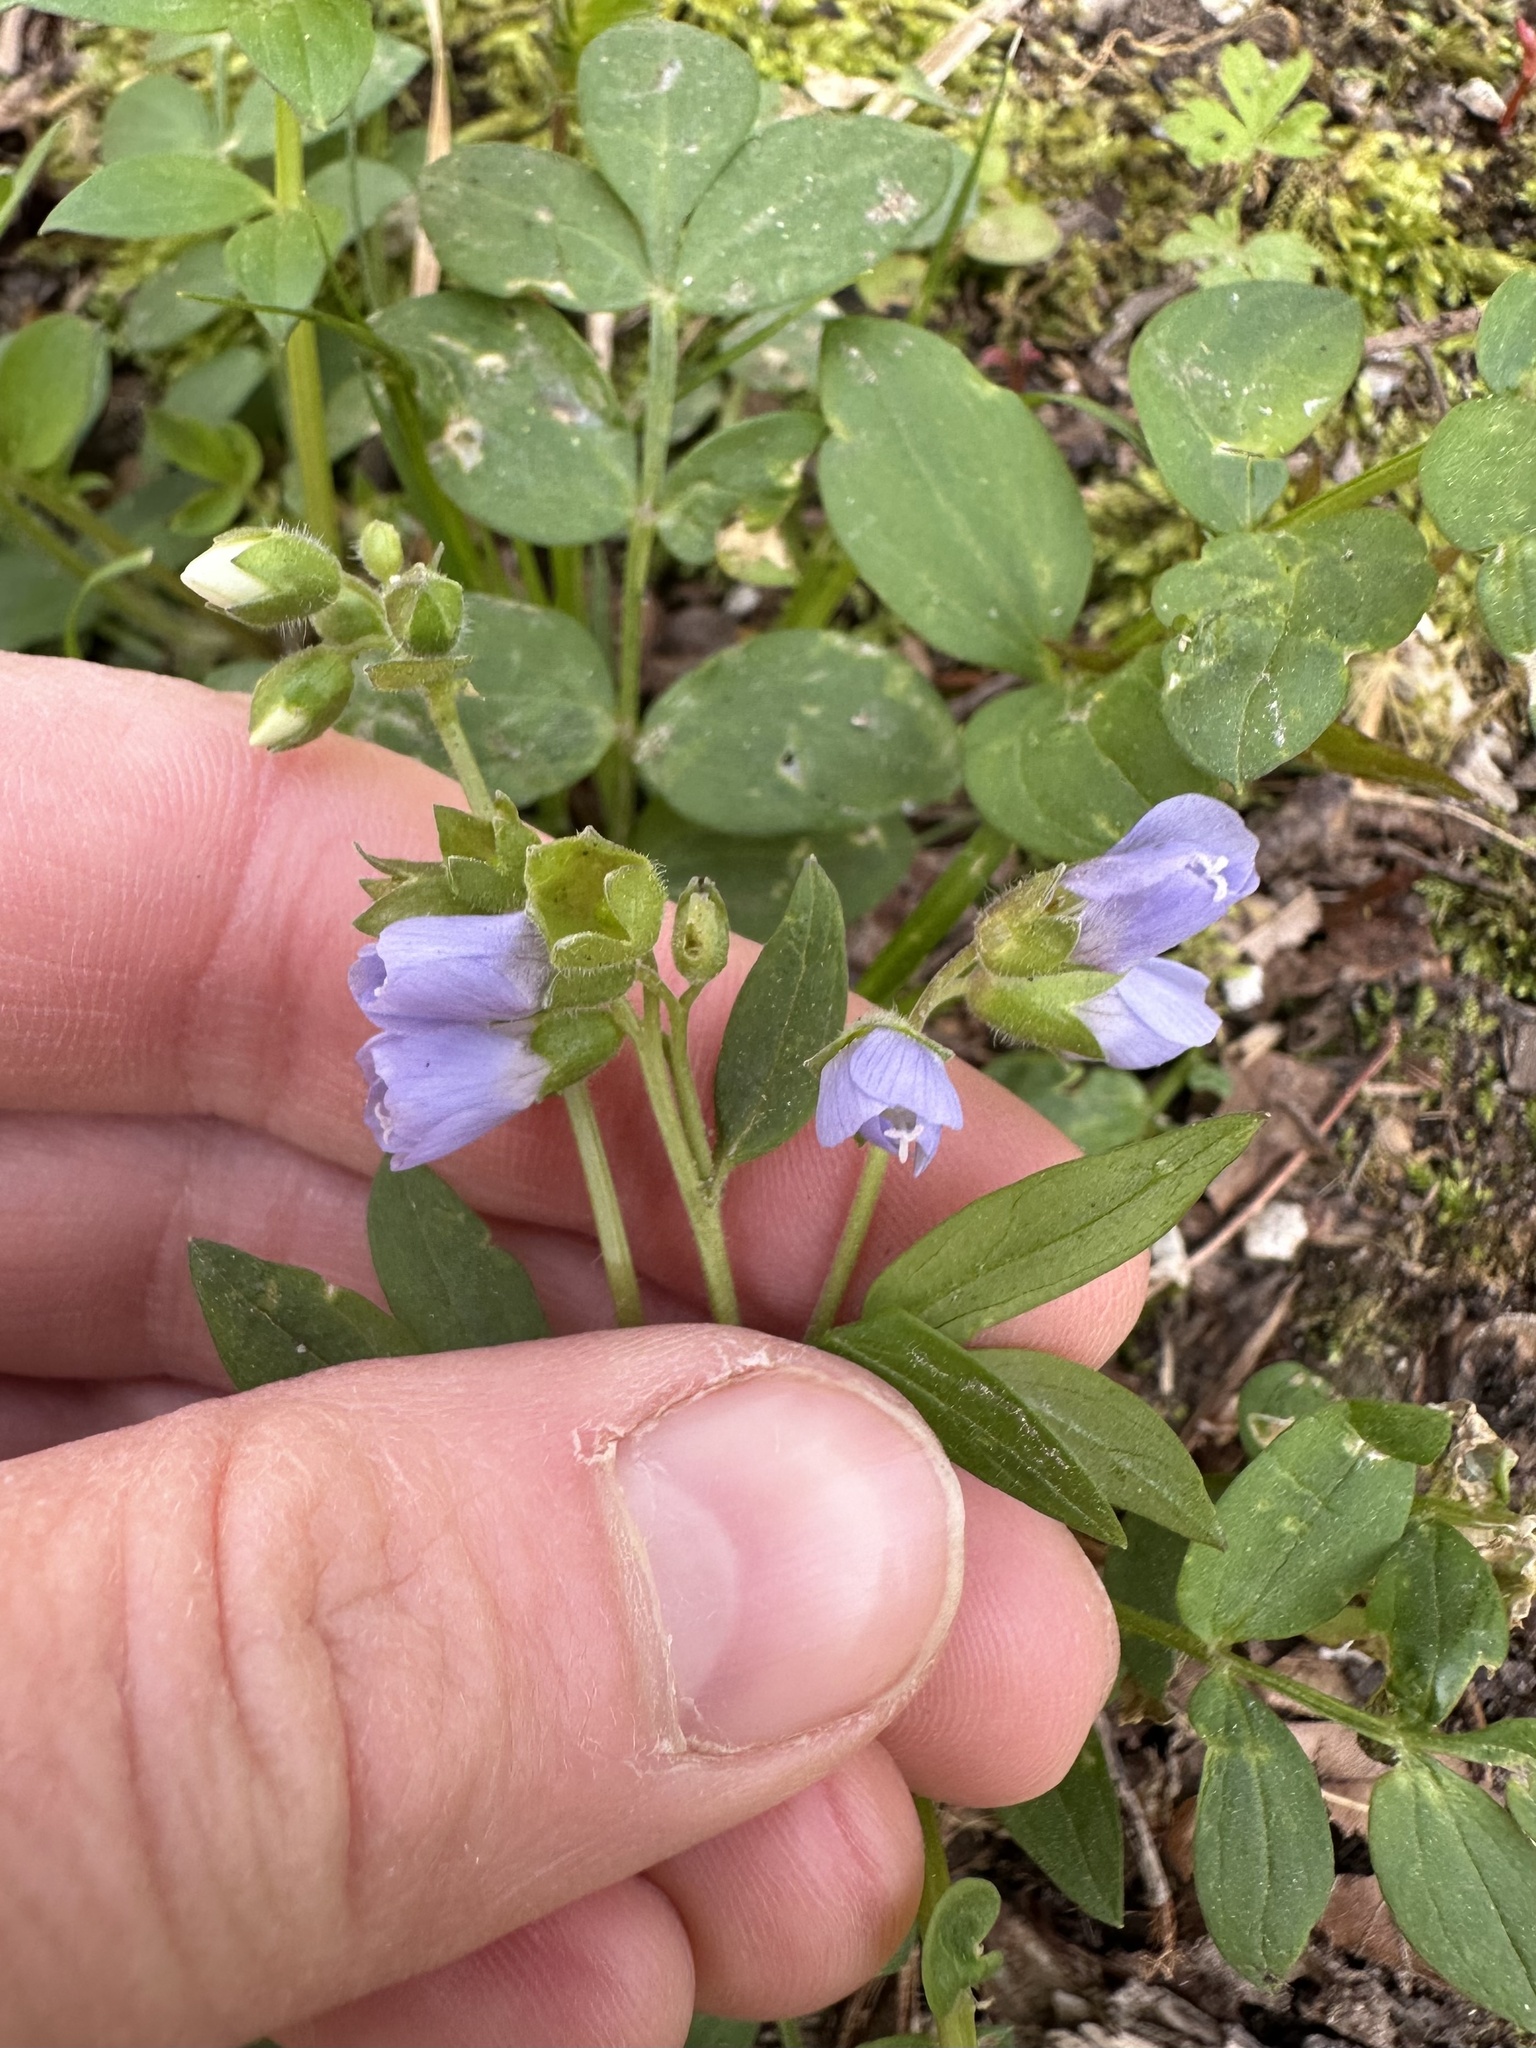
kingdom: Plantae
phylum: Tracheophyta
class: Magnoliopsida
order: Ericales
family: Polemoniaceae
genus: Polemonium
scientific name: Polemonium reptans
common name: Creeping jacob's-ladder
